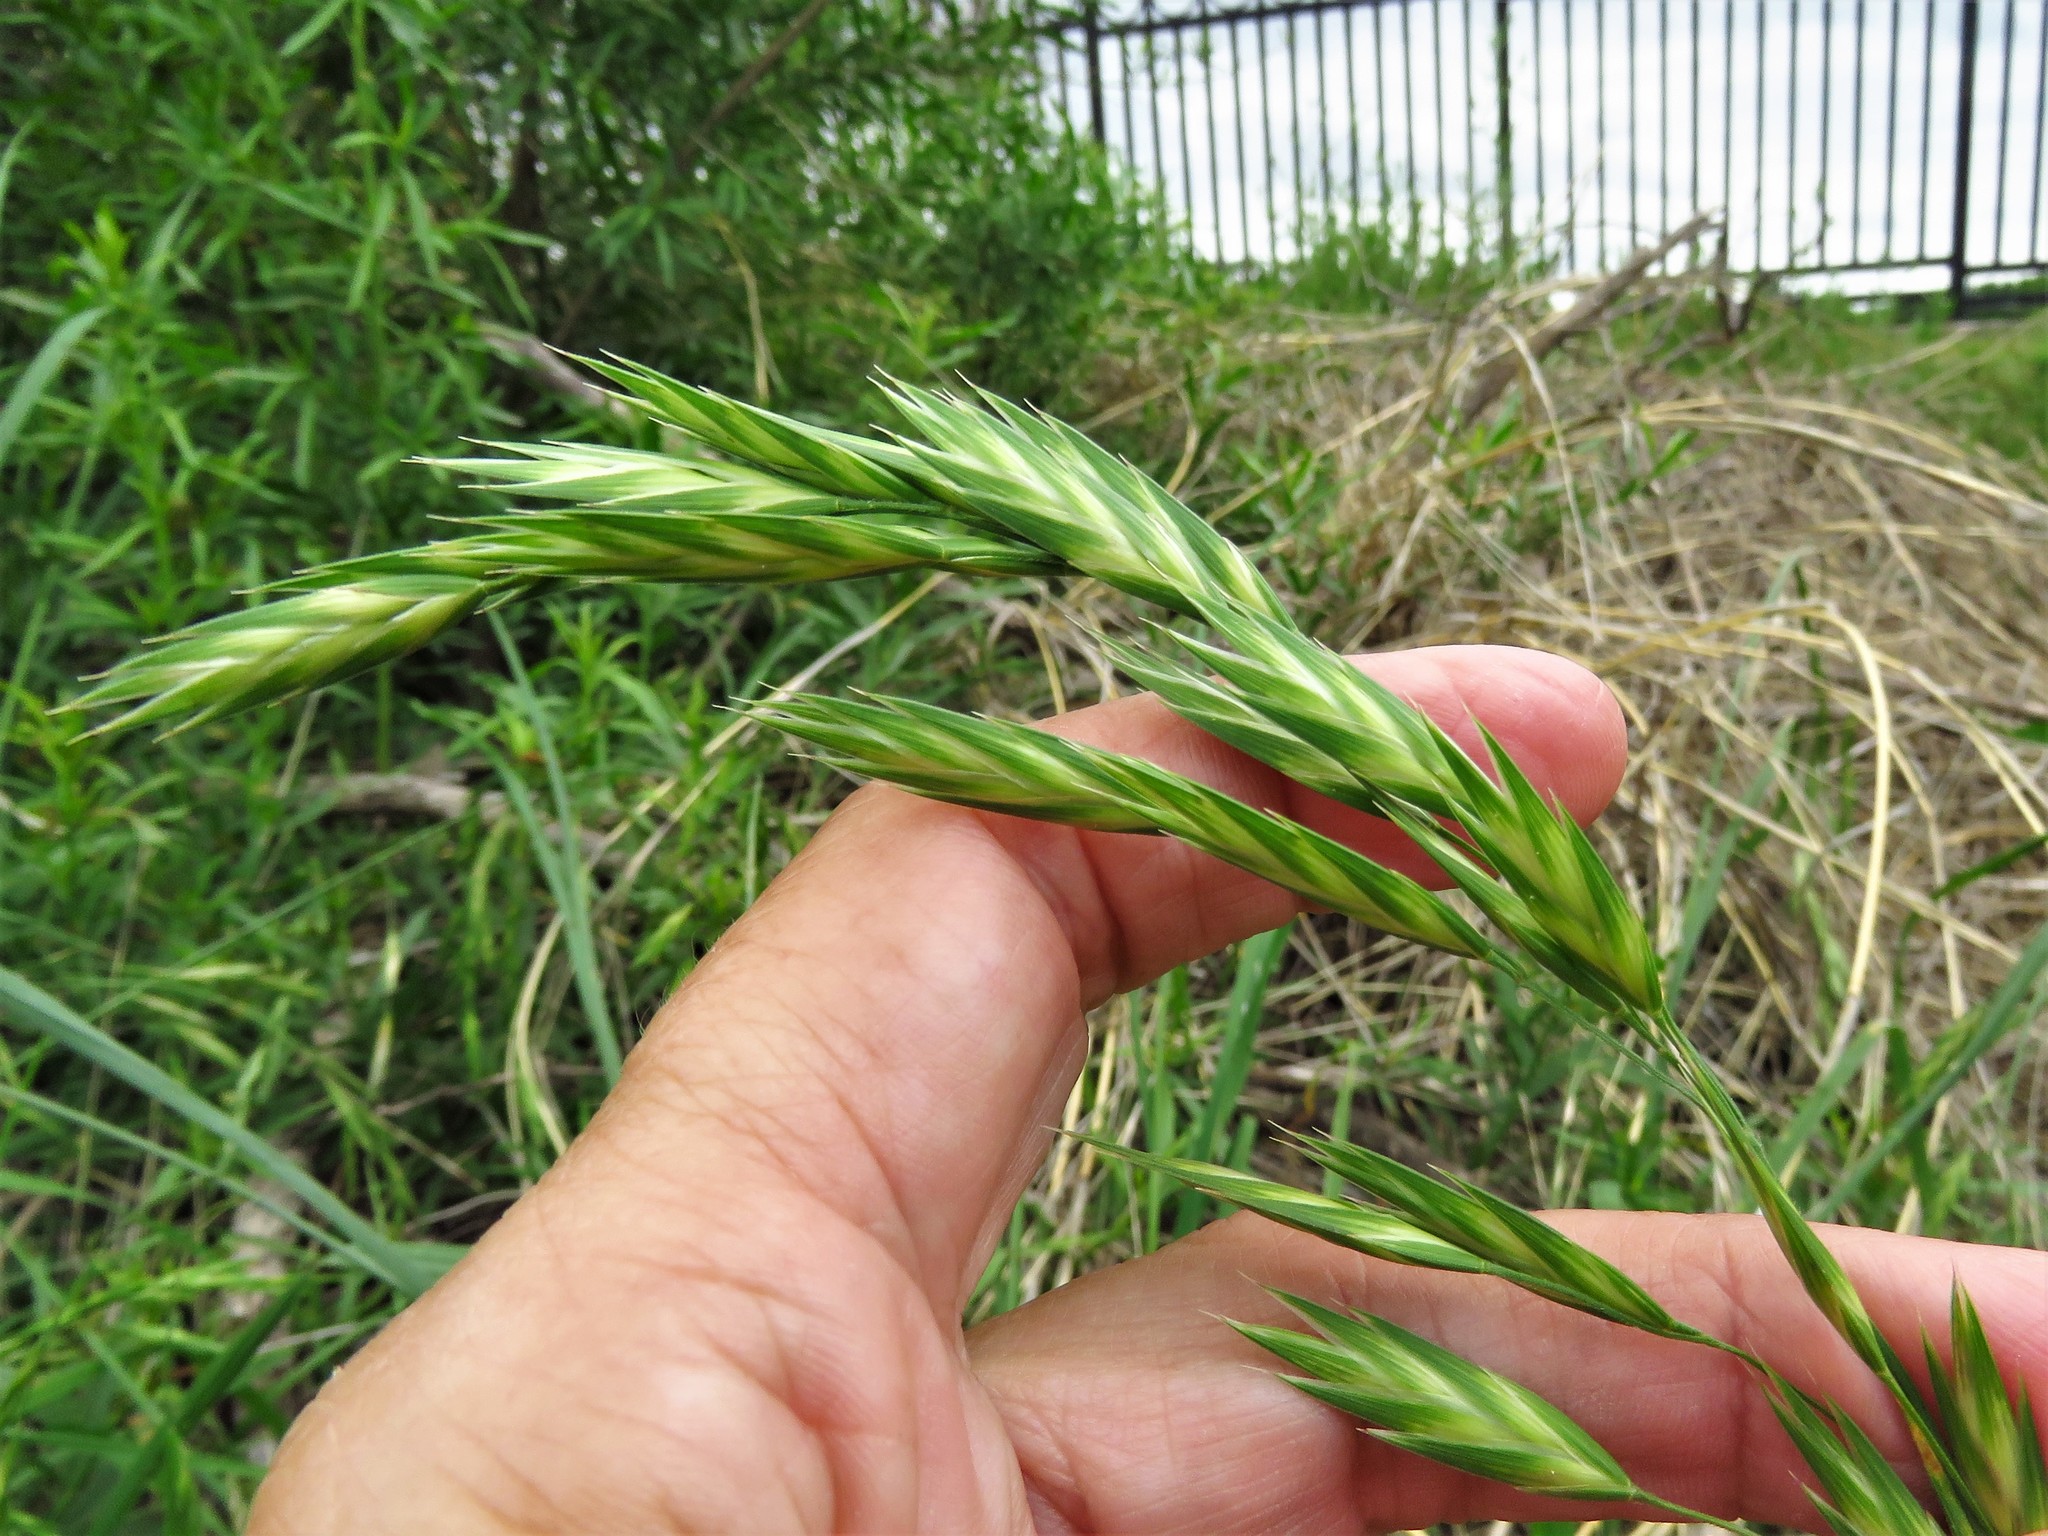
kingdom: Plantae
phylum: Tracheophyta
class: Liliopsida
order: Poales
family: Poaceae
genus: Bromus
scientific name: Bromus catharticus
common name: Rescuegrass
